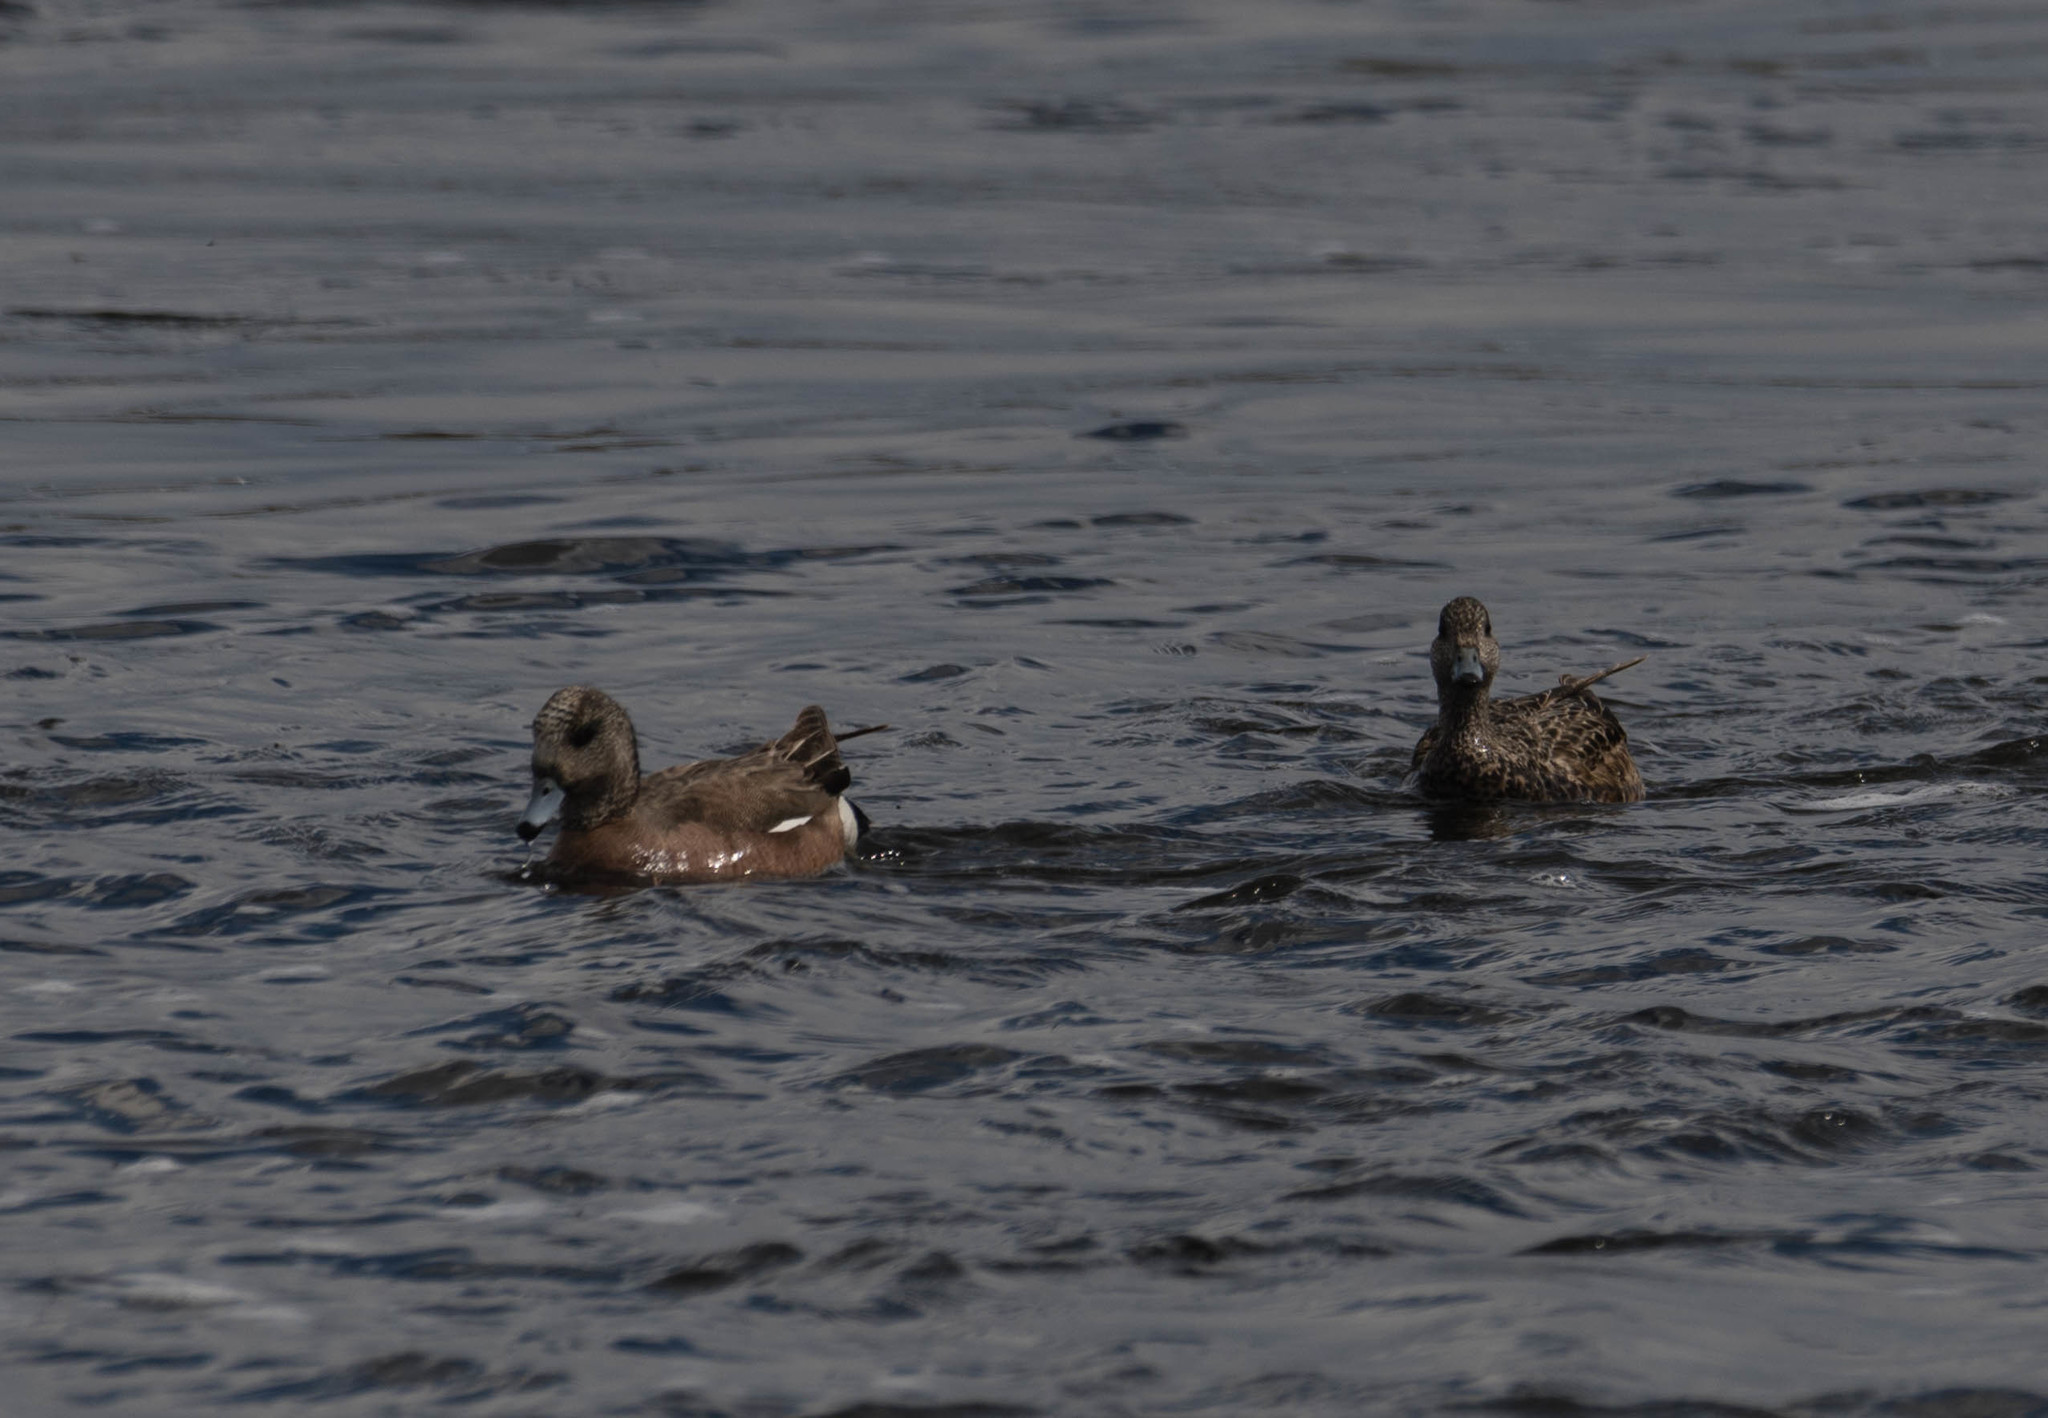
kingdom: Animalia
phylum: Chordata
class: Aves
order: Anseriformes
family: Anatidae
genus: Mareca
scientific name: Mareca americana
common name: American wigeon
